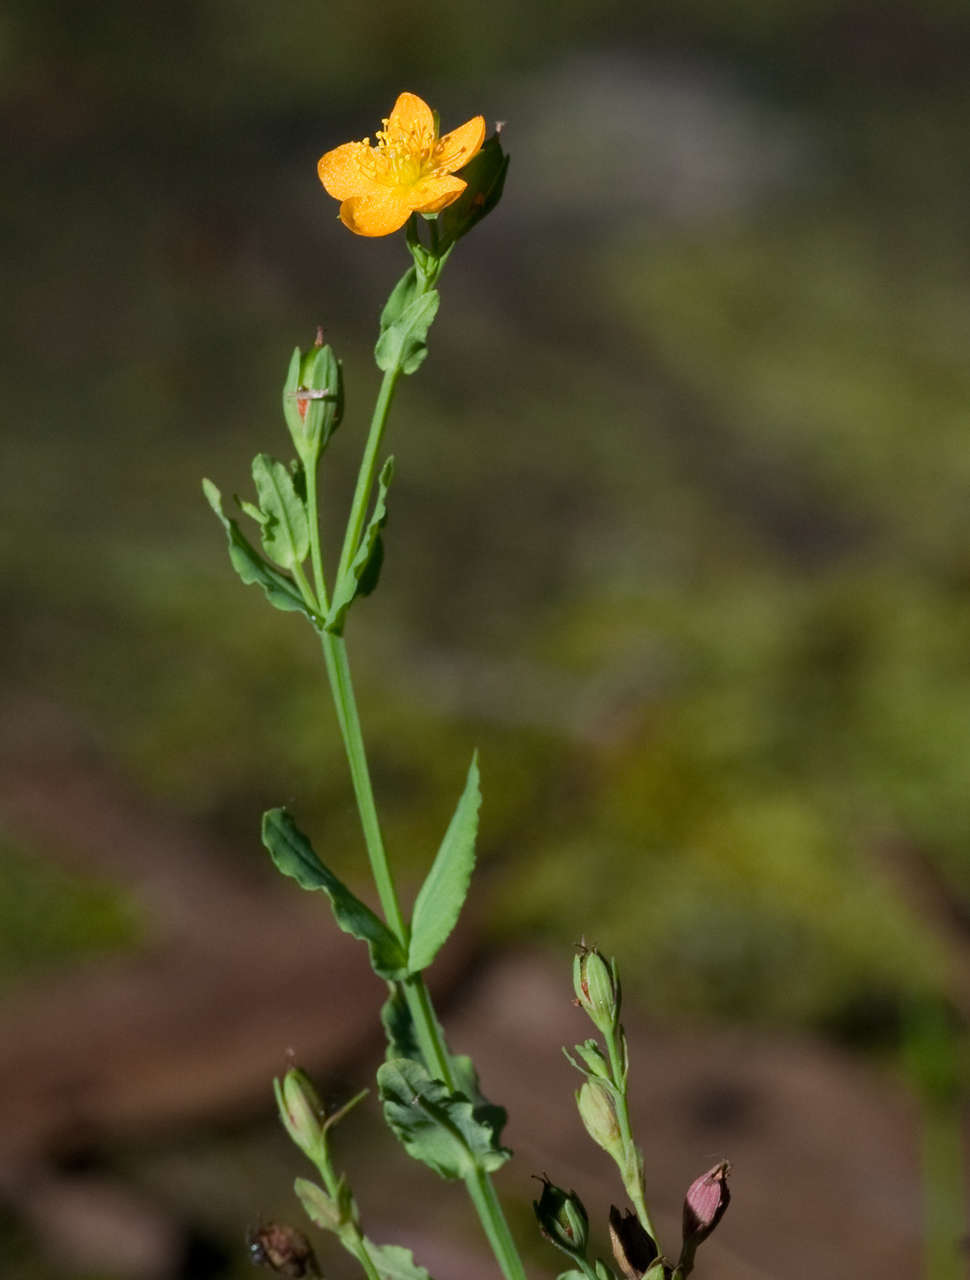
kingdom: Plantae
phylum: Tracheophyta
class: Magnoliopsida
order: Malpighiales
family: Hypericaceae
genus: Hypericum
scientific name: Hypericum gramineum
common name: Grassy st. johnswort
